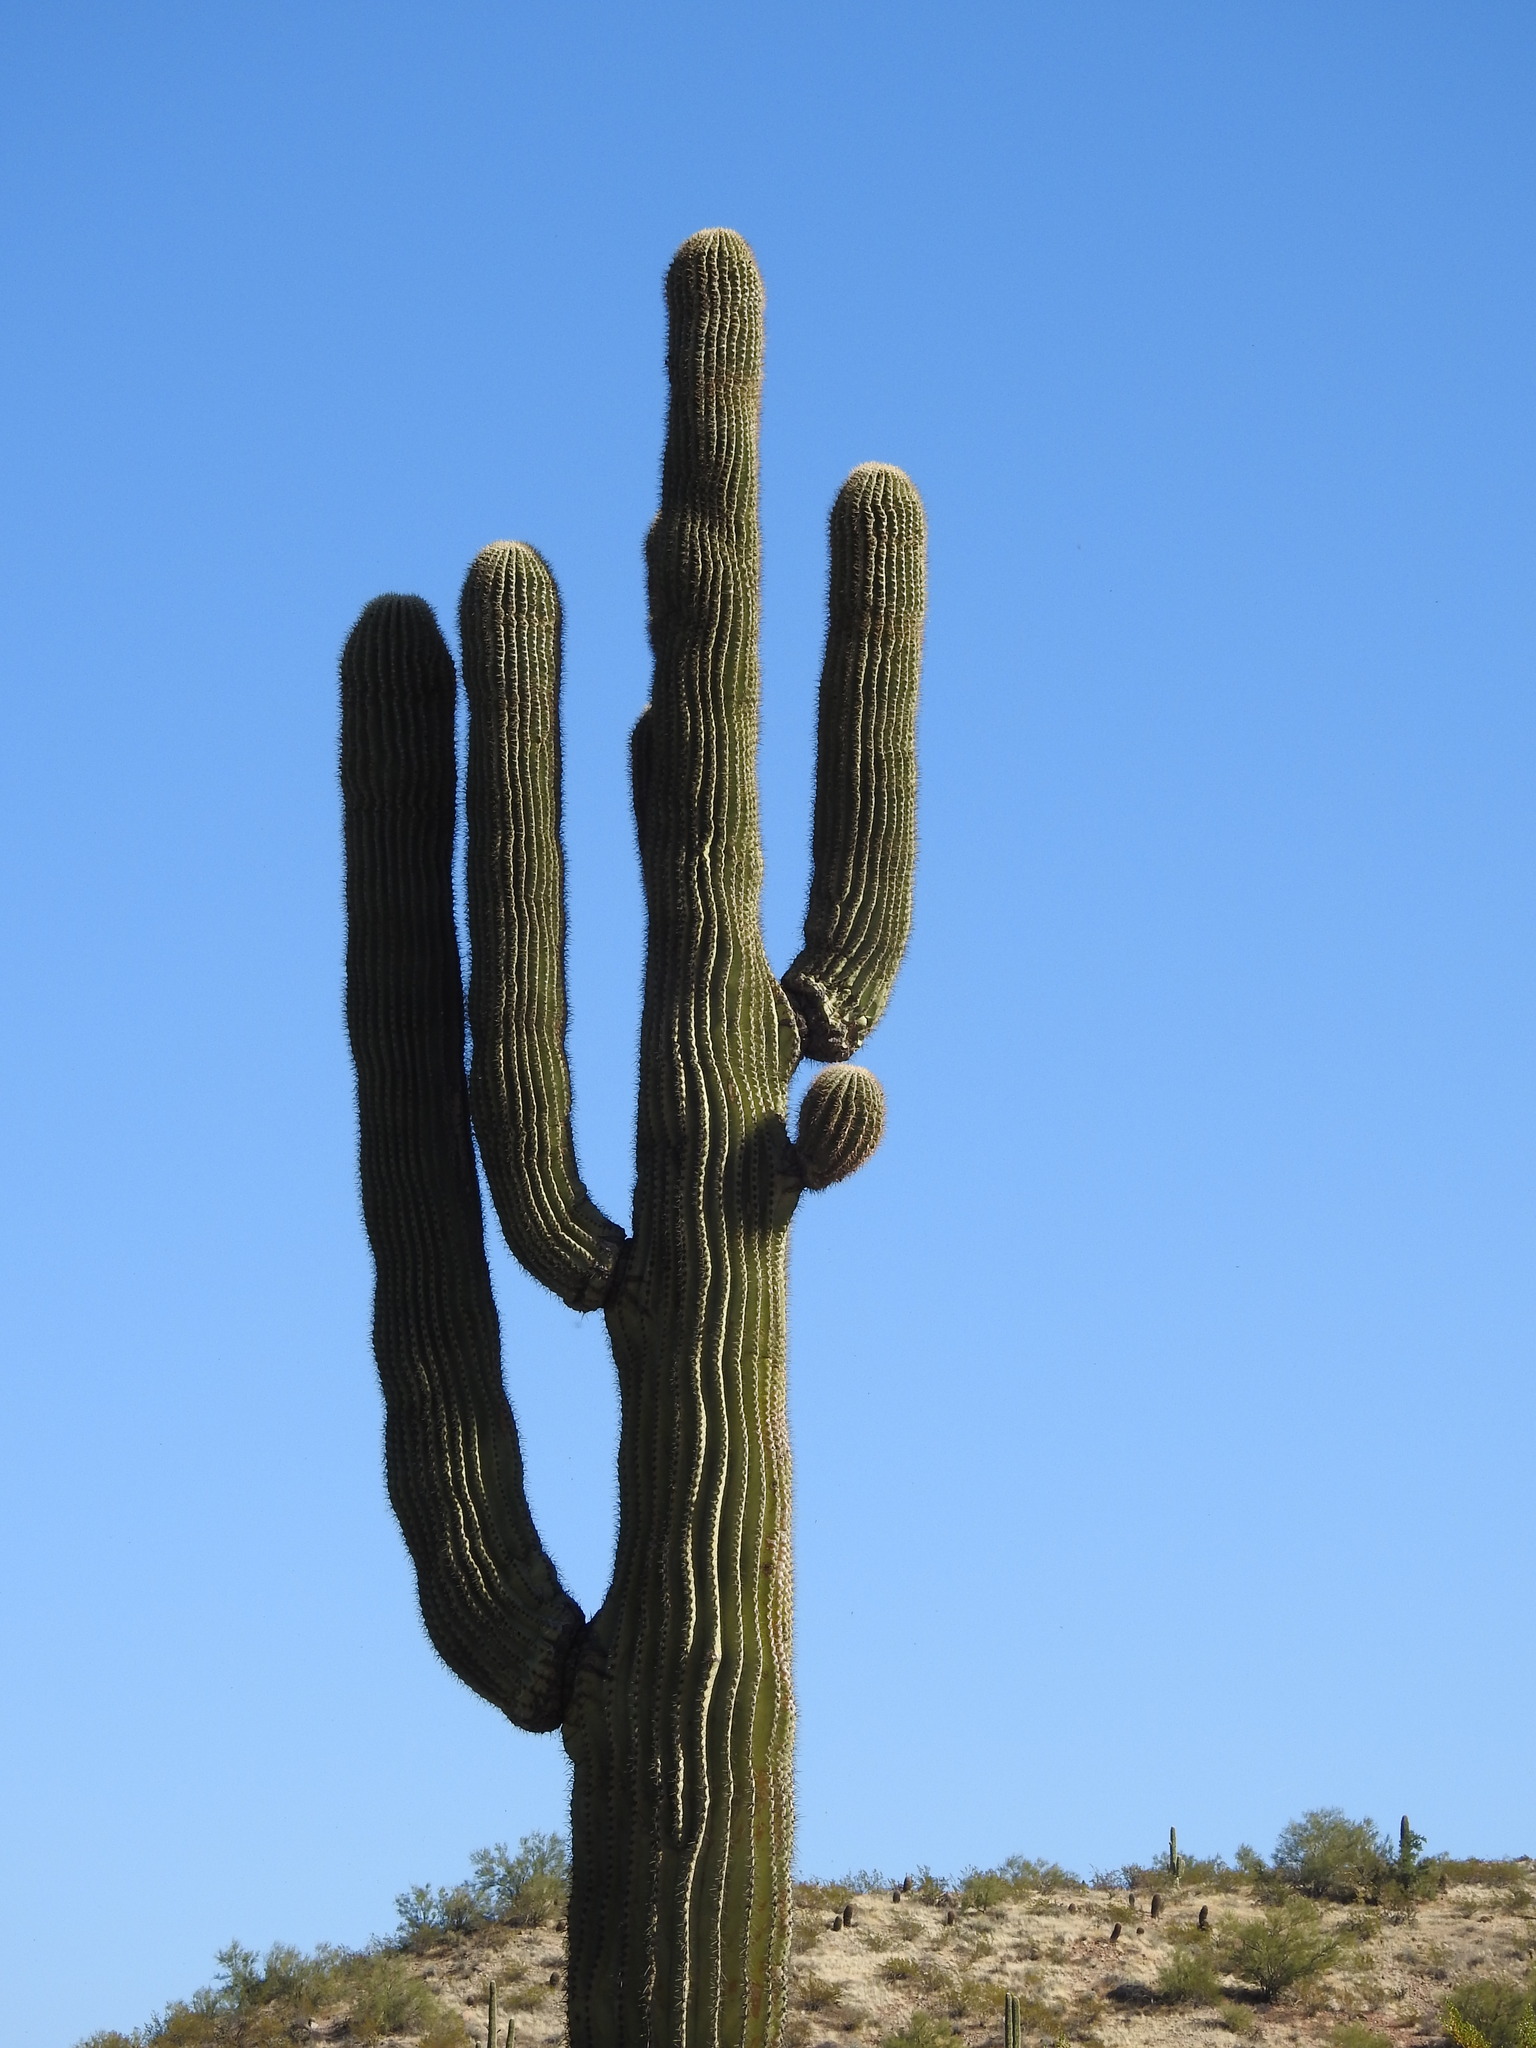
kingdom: Plantae
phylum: Tracheophyta
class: Magnoliopsida
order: Caryophyllales
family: Cactaceae
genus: Carnegiea
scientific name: Carnegiea gigantea
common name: Saguaro
